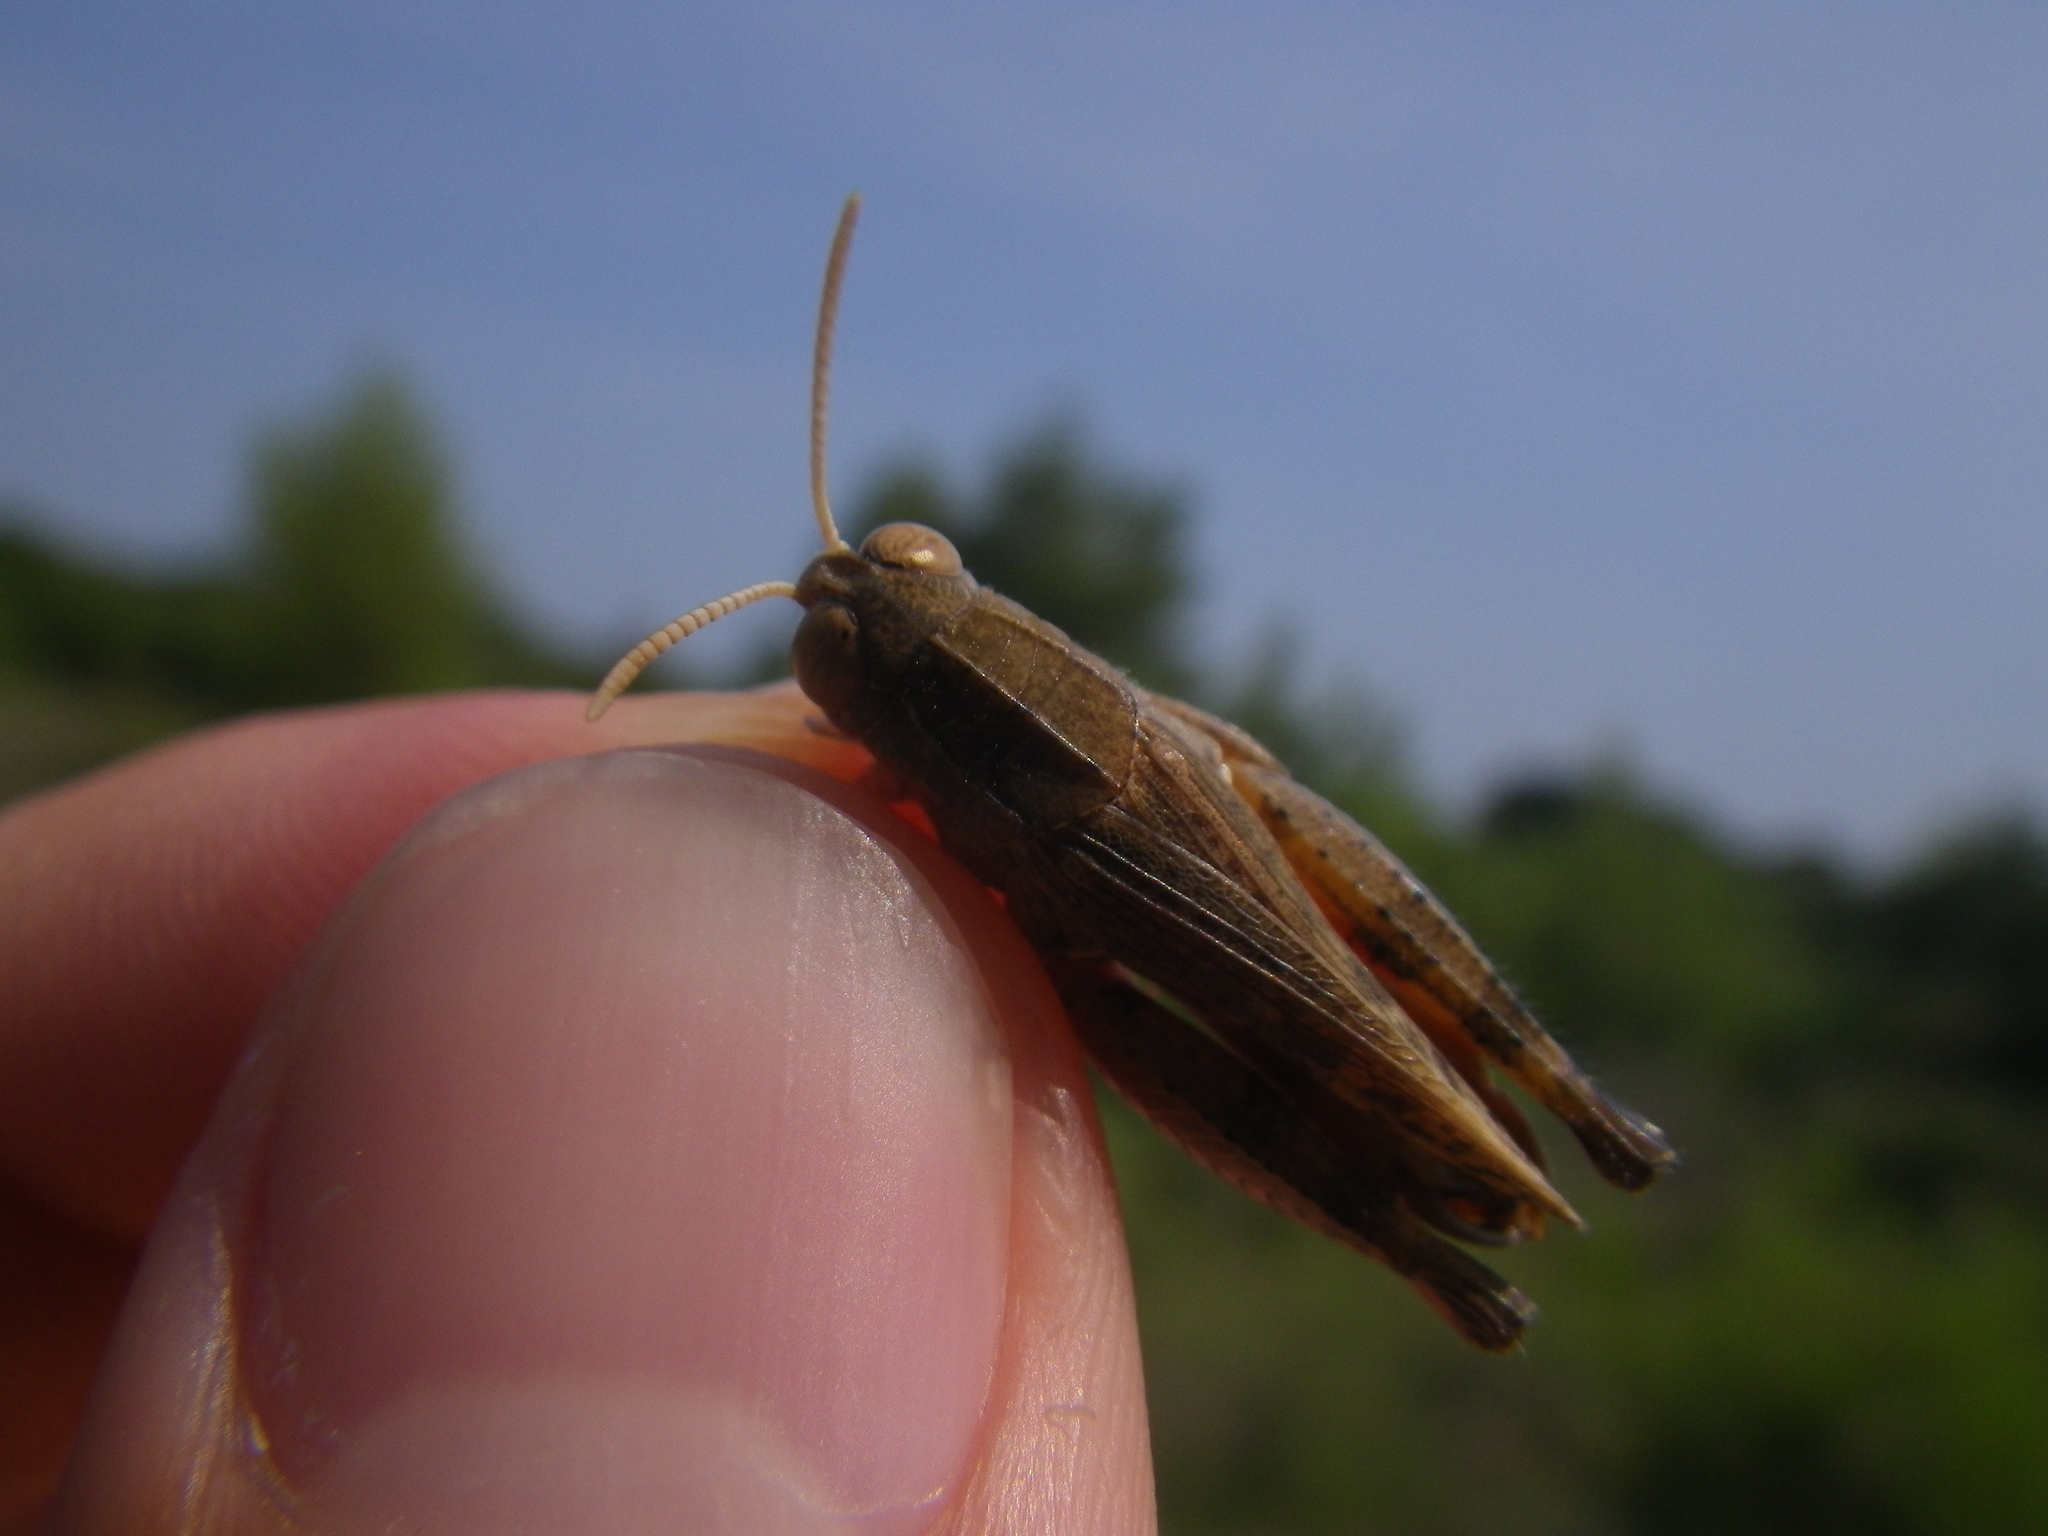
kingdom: Animalia
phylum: Arthropoda
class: Insecta
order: Orthoptera
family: Acrididae
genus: Calliptamus
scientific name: Calliptamus wattenwylianus
